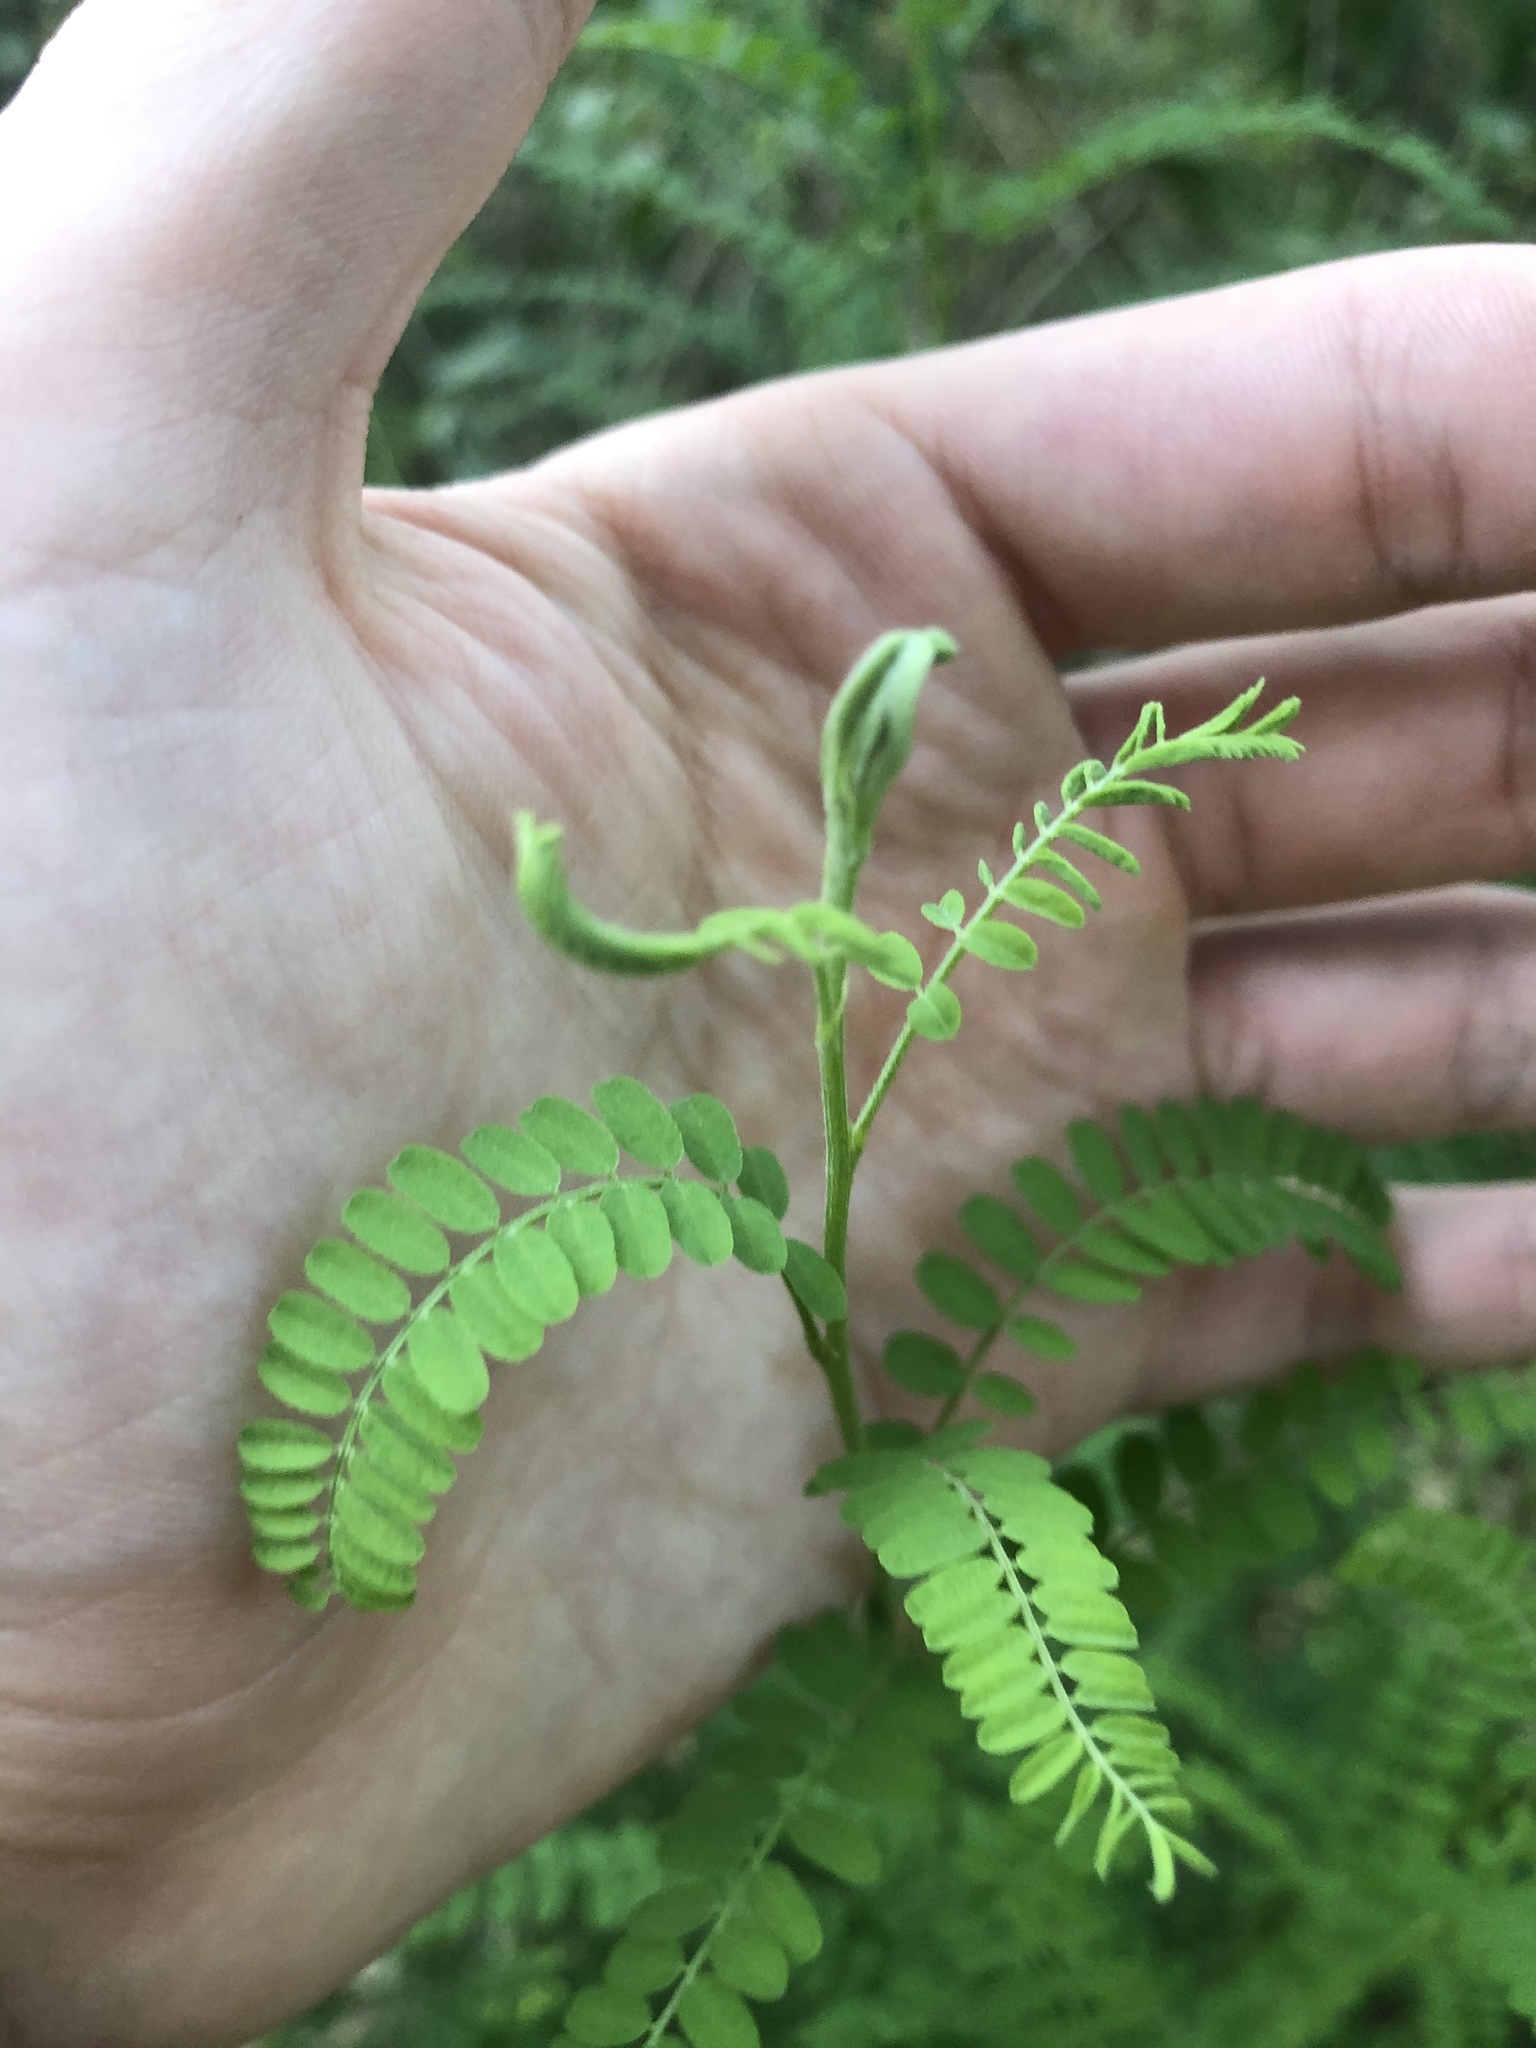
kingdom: Plantae
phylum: Tracheophyta
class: Magnoliopsida
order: Fabales
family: Fabaceae
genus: Eysenhardtia
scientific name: Eysenhardtia texana
